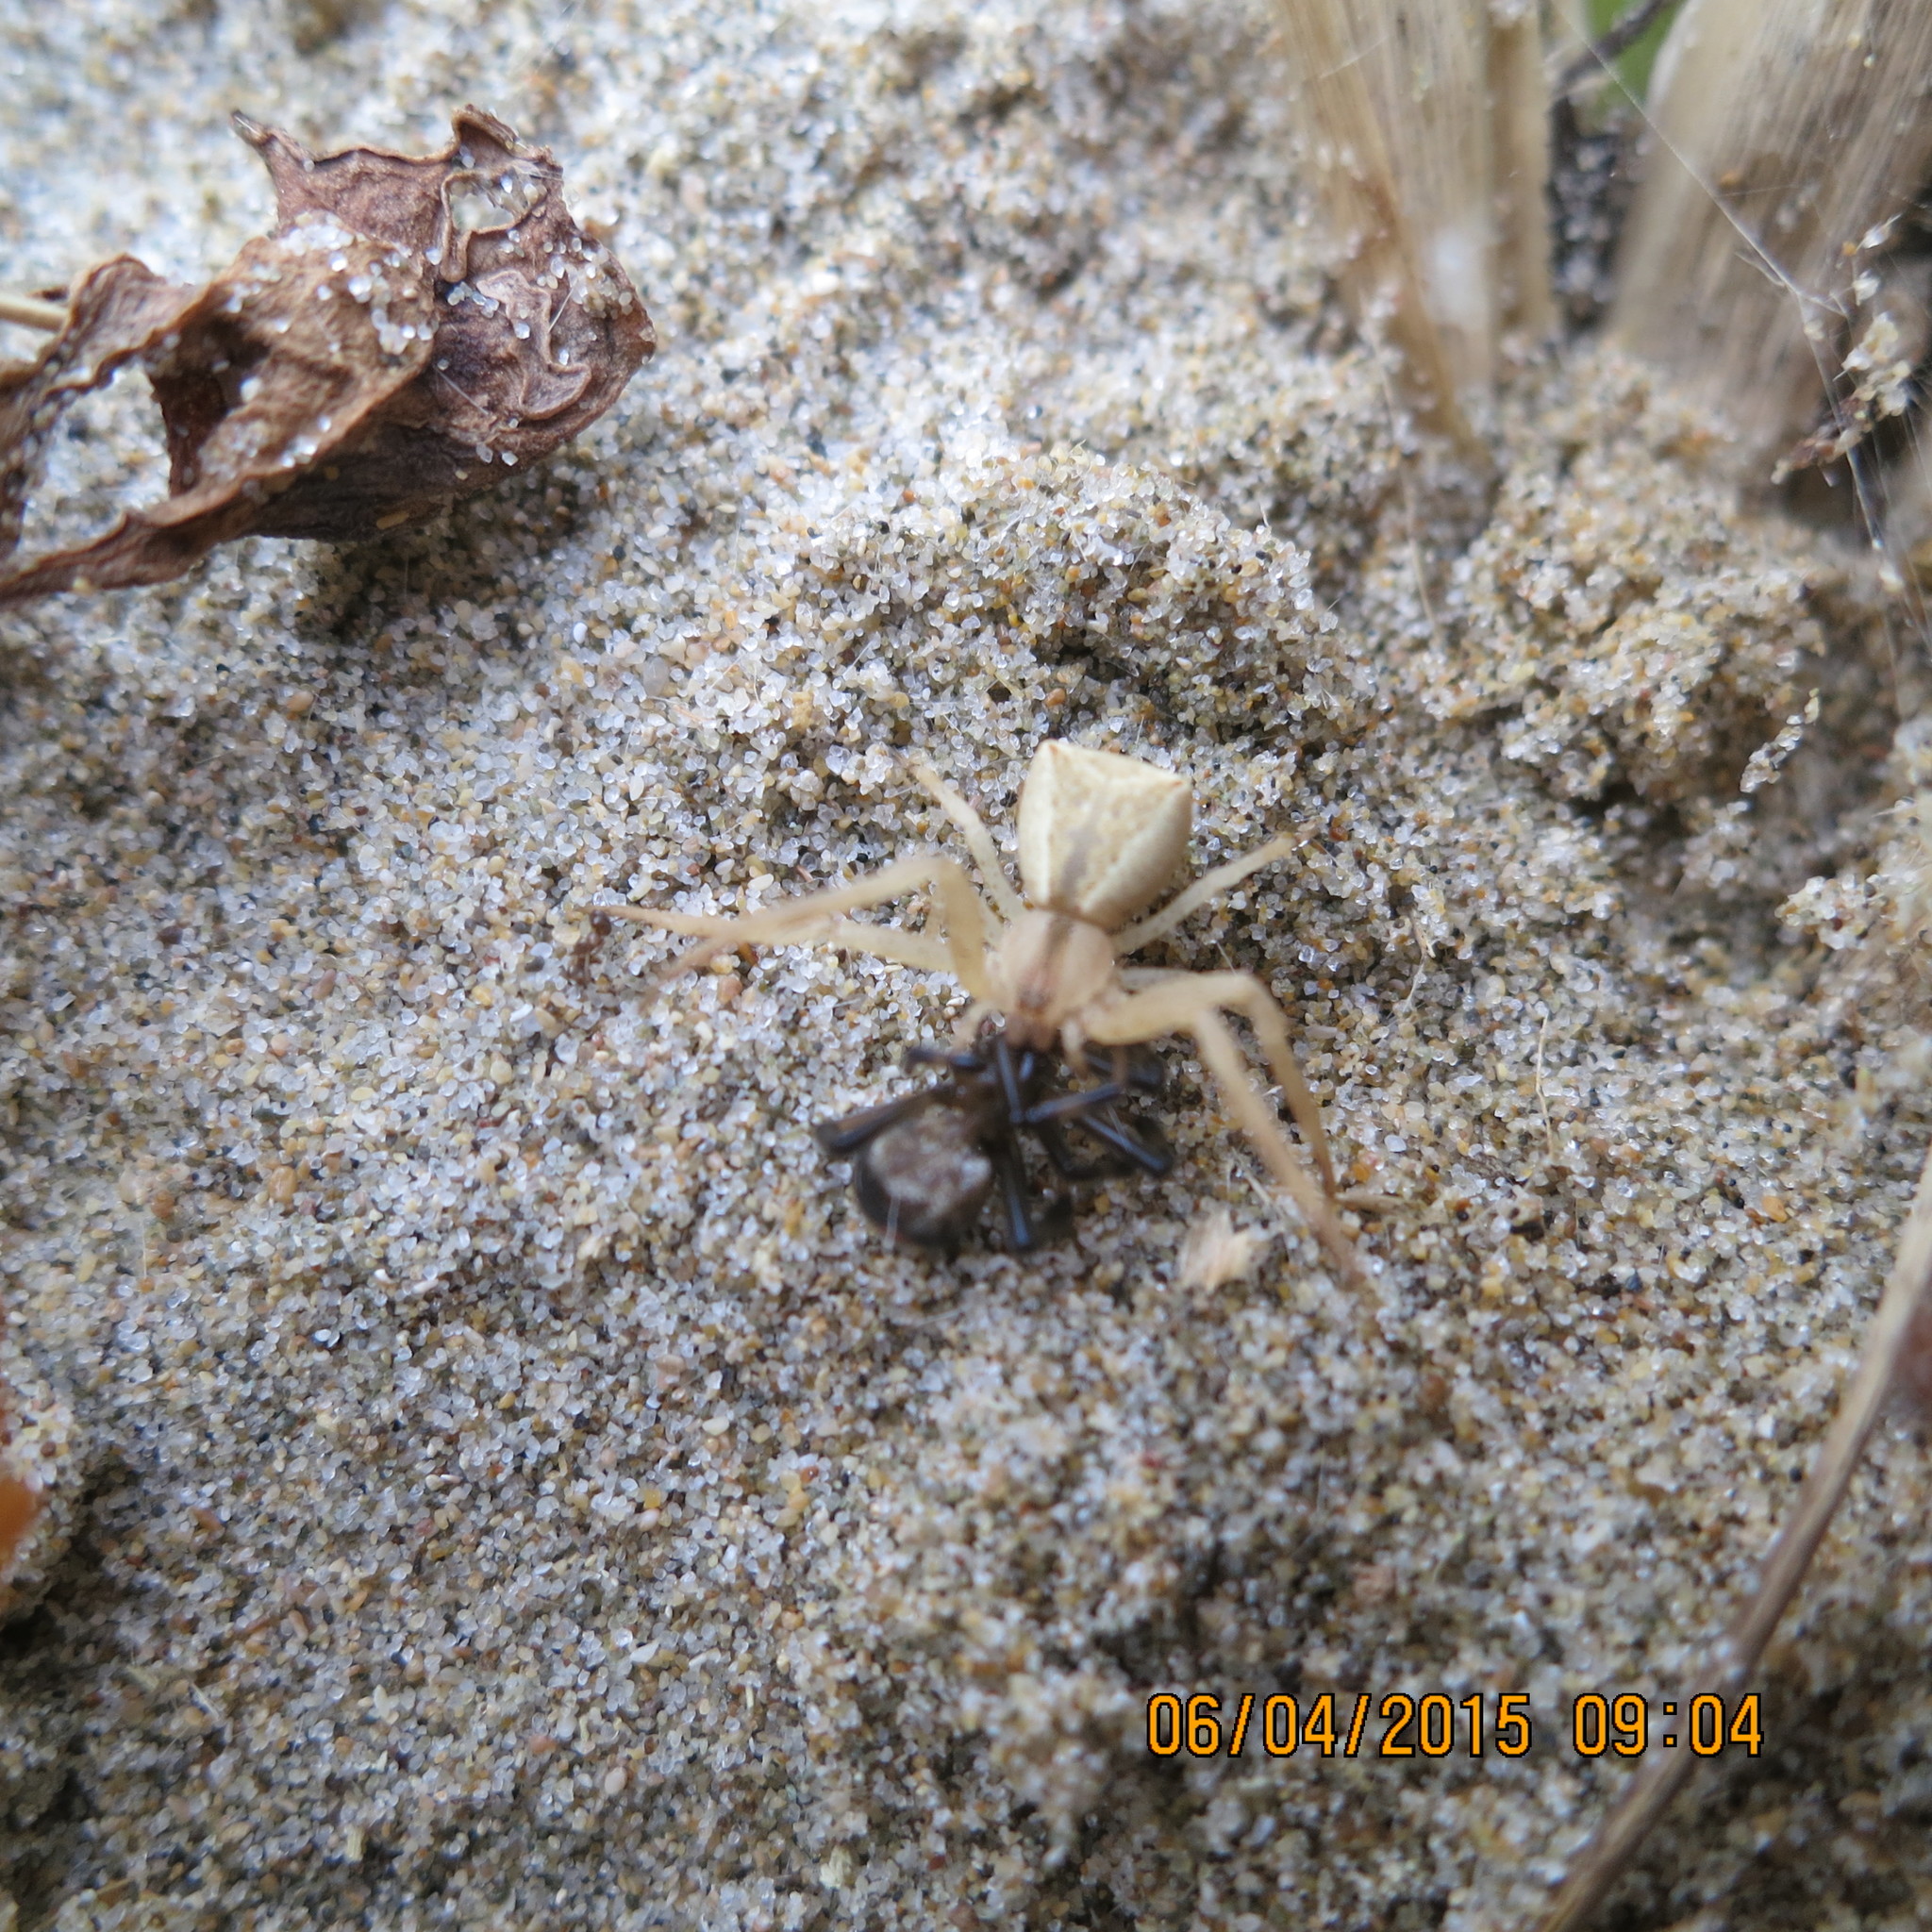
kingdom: Animalia
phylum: Arthropoda
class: Arachnida
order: Araneae
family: Thomisidae
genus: Sidymella
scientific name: Sidymella trapezia
